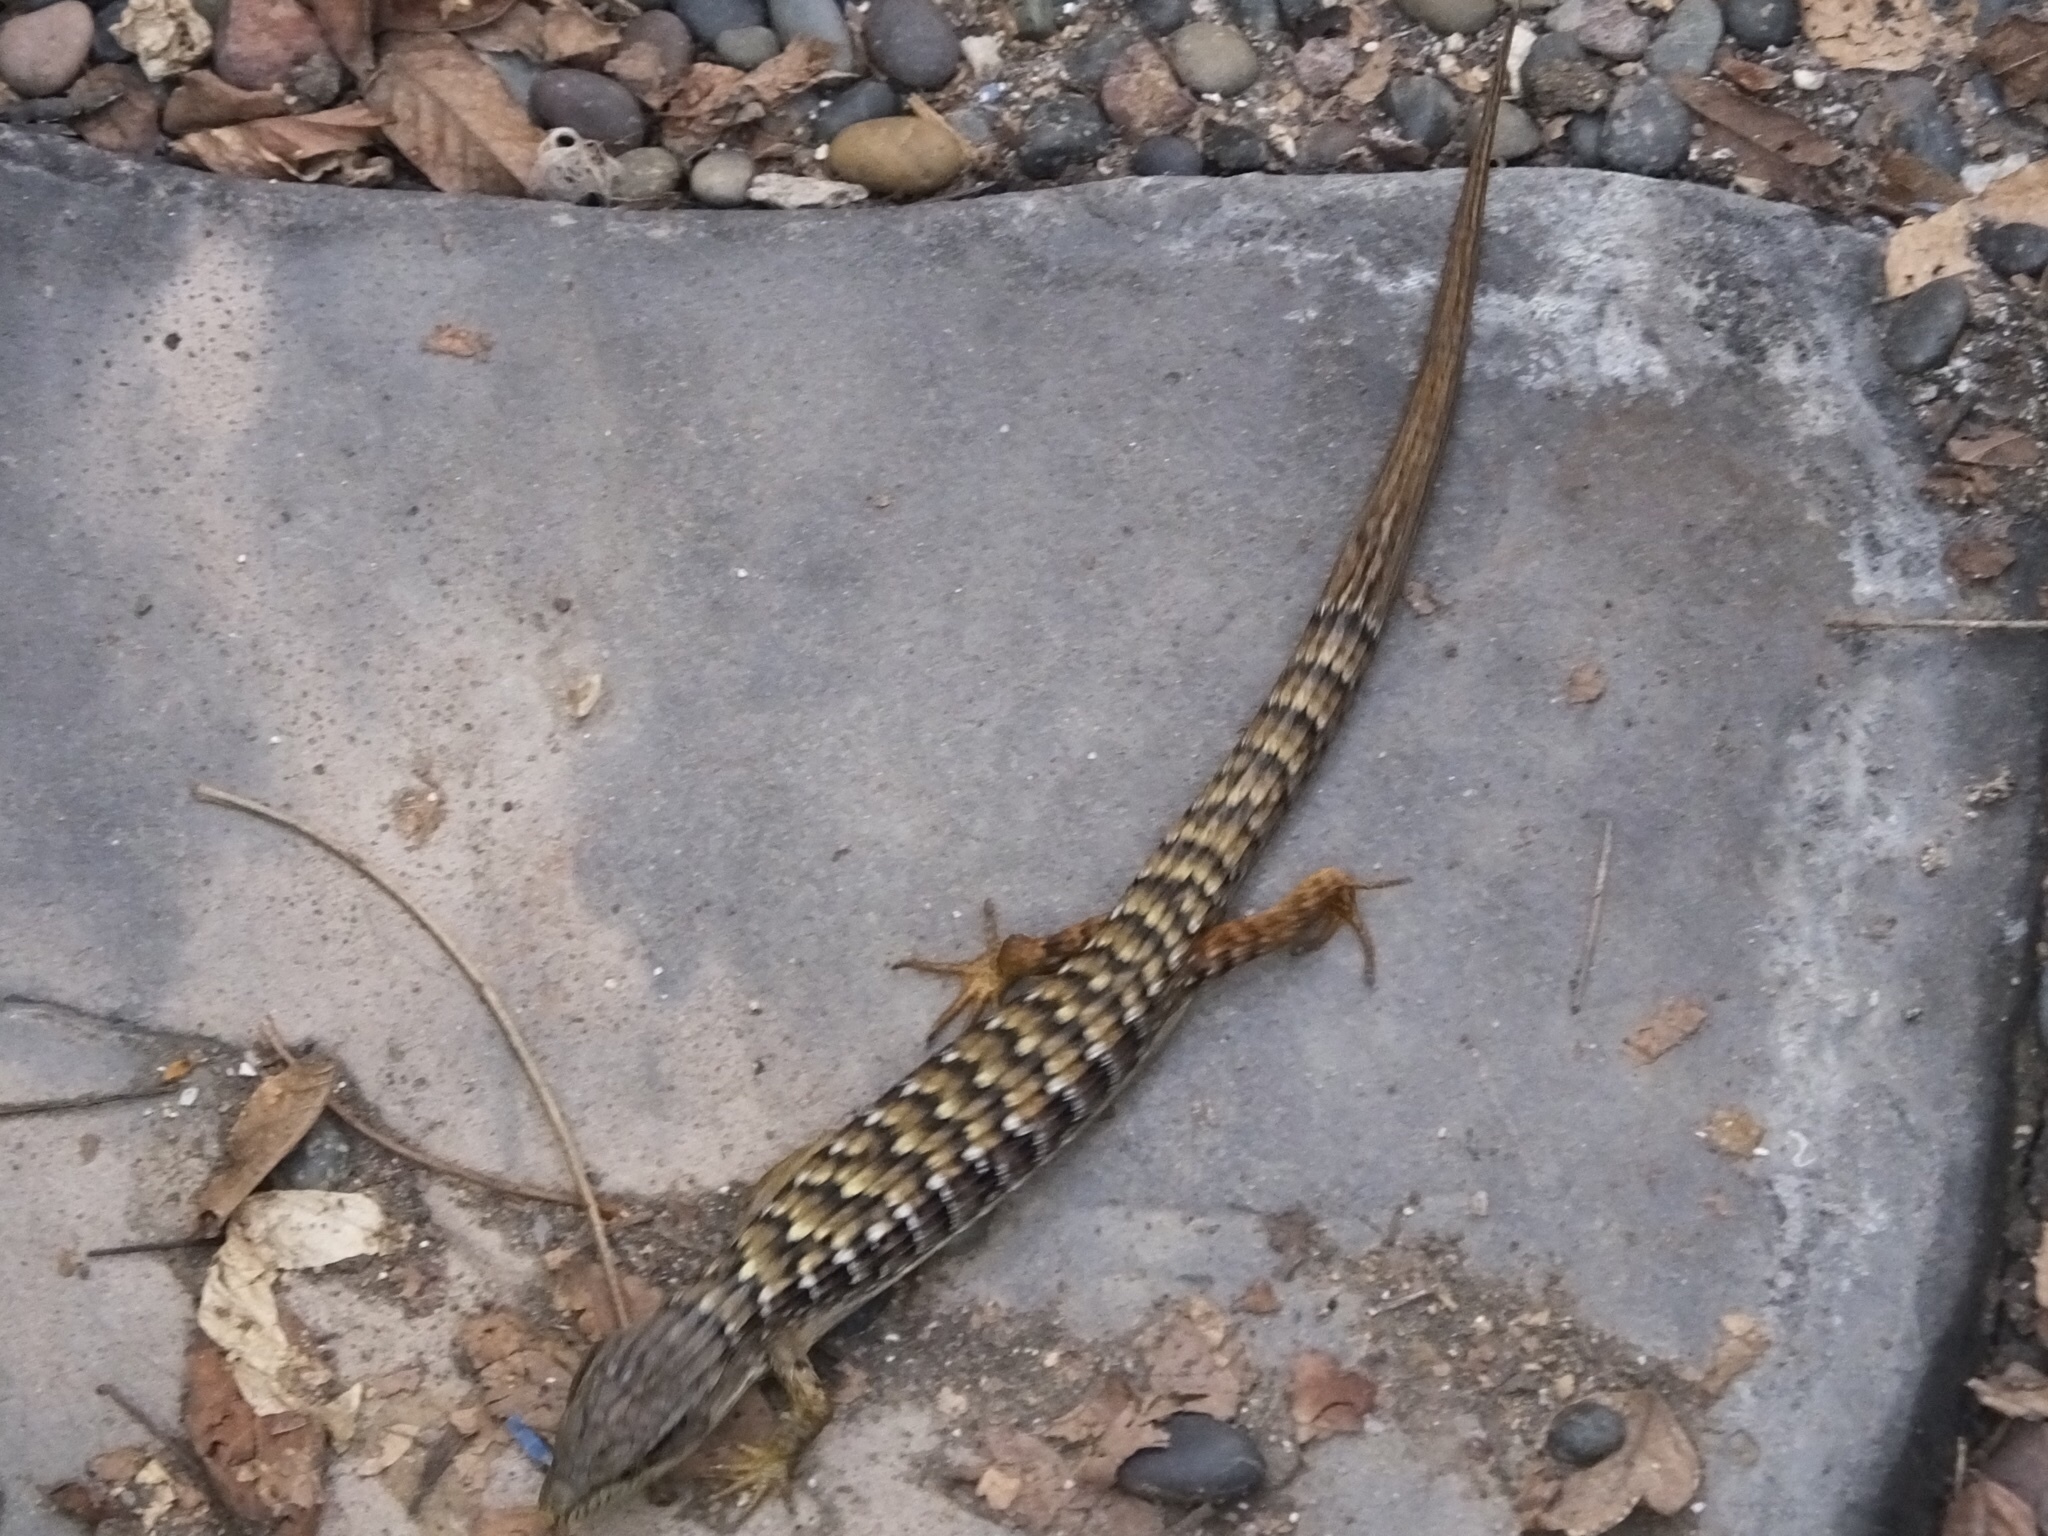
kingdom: Animalia
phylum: Chordata
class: Squamata
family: Anguidae
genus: Elgaria
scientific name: Elgaria multicarinata
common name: Southern alligator lizard
